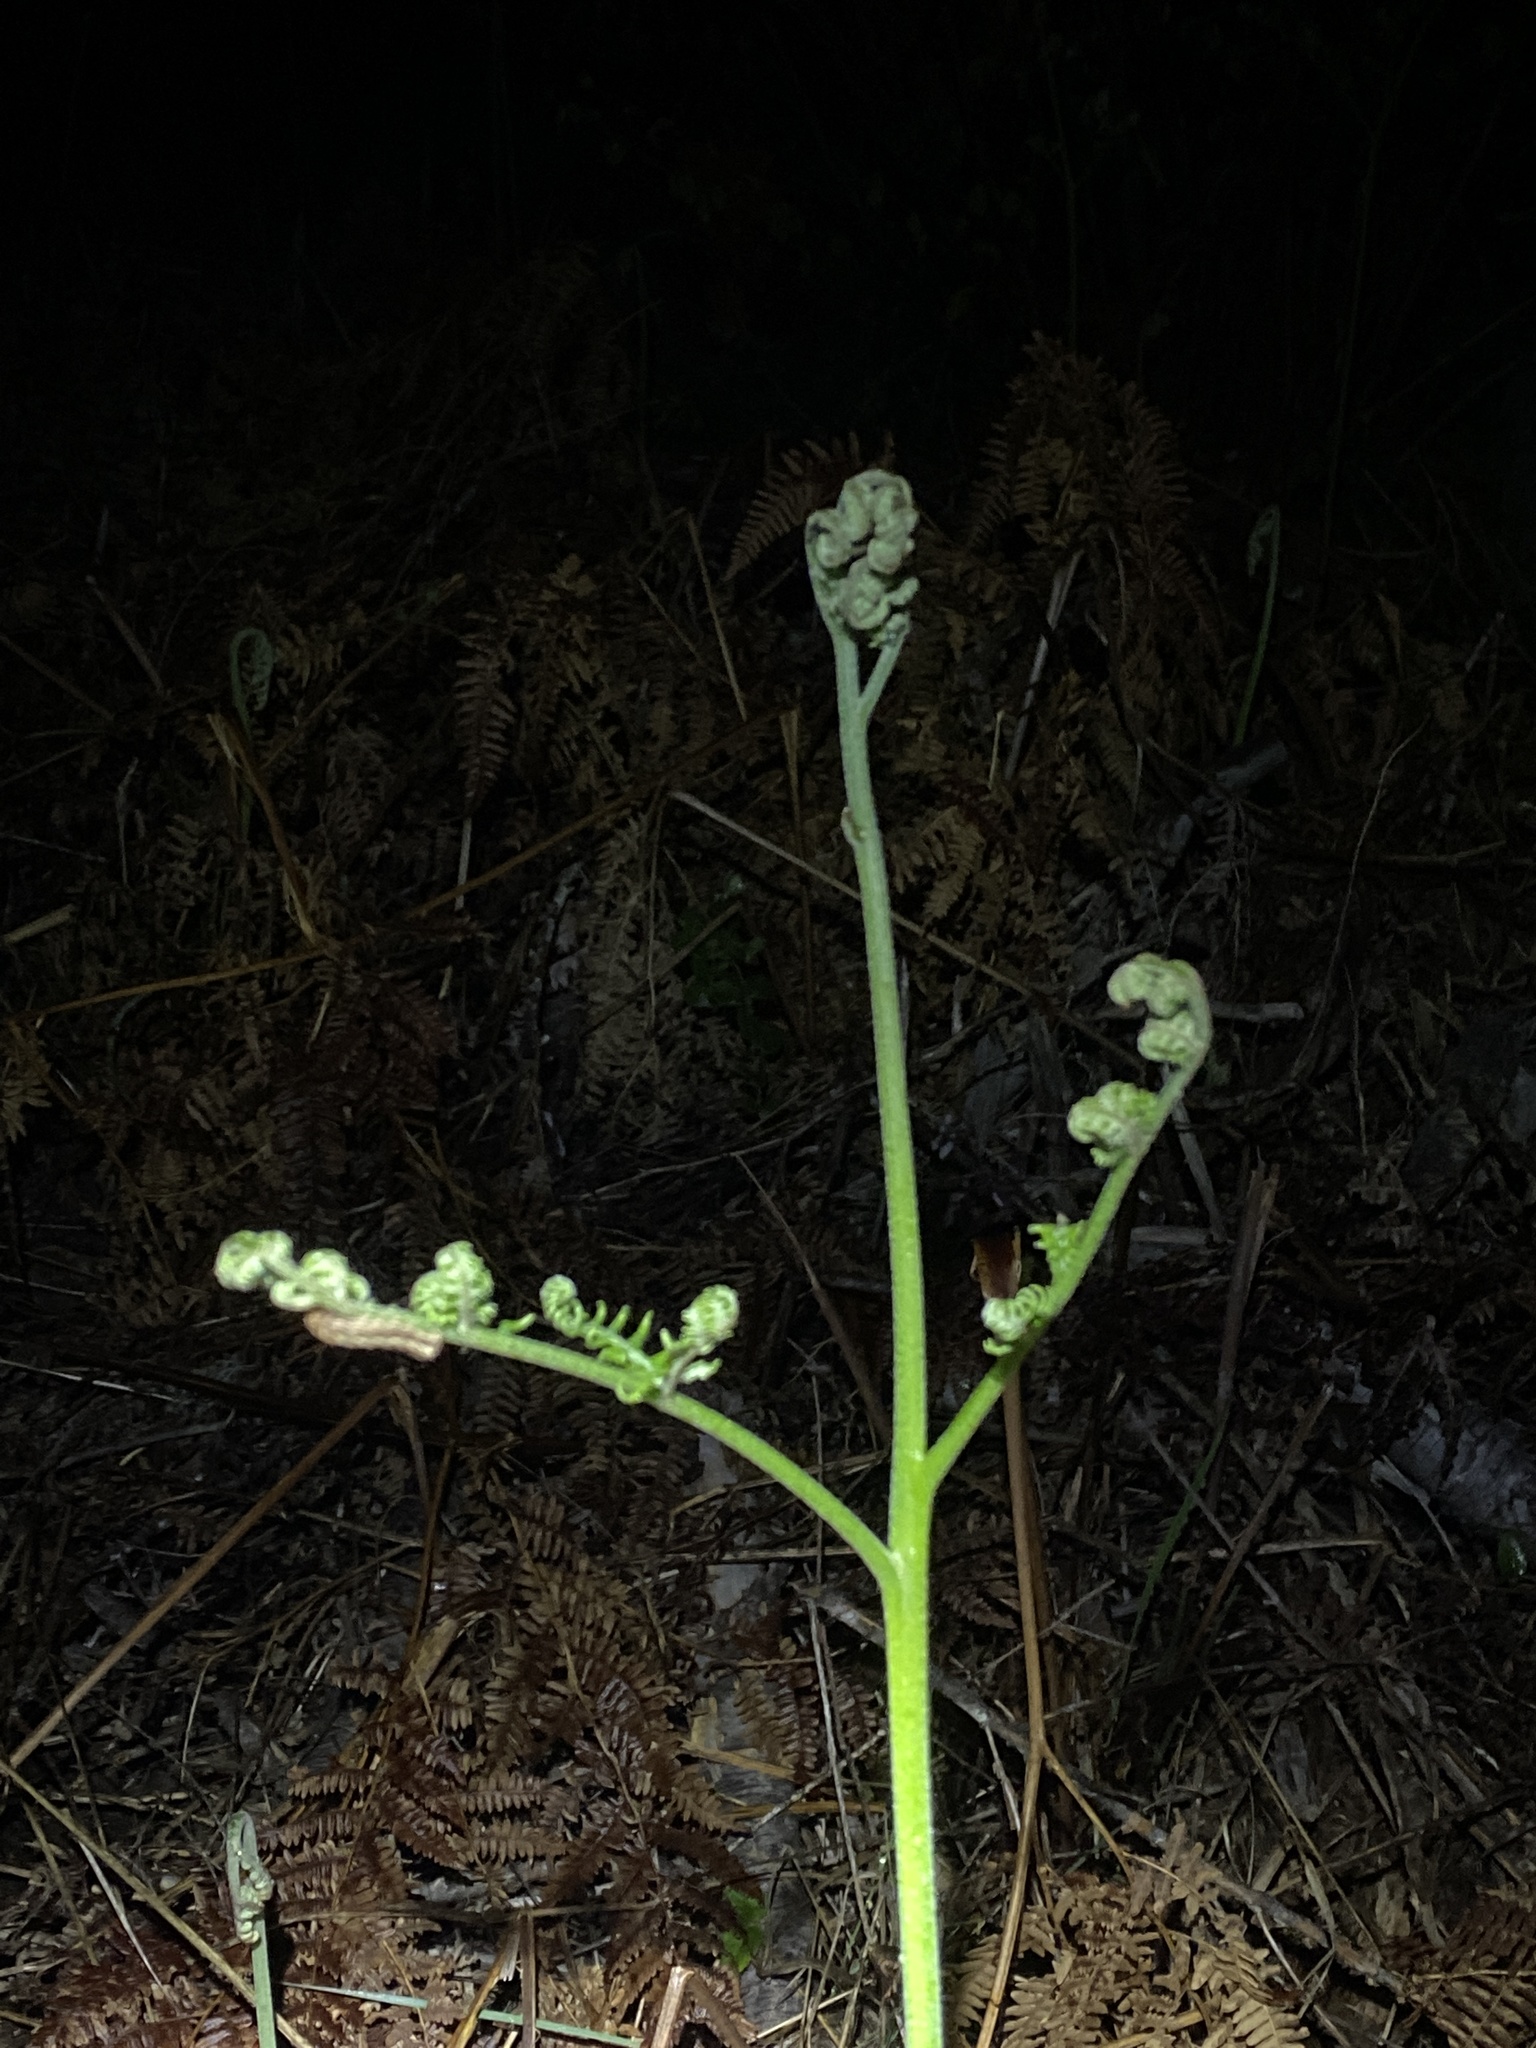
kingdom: Plantae
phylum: Tracheophyta
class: Polypodiopsida
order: Polypodiales
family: Dennstaedtiaceae
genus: Pteridium
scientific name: Pteridium aquilinum
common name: Bracken
